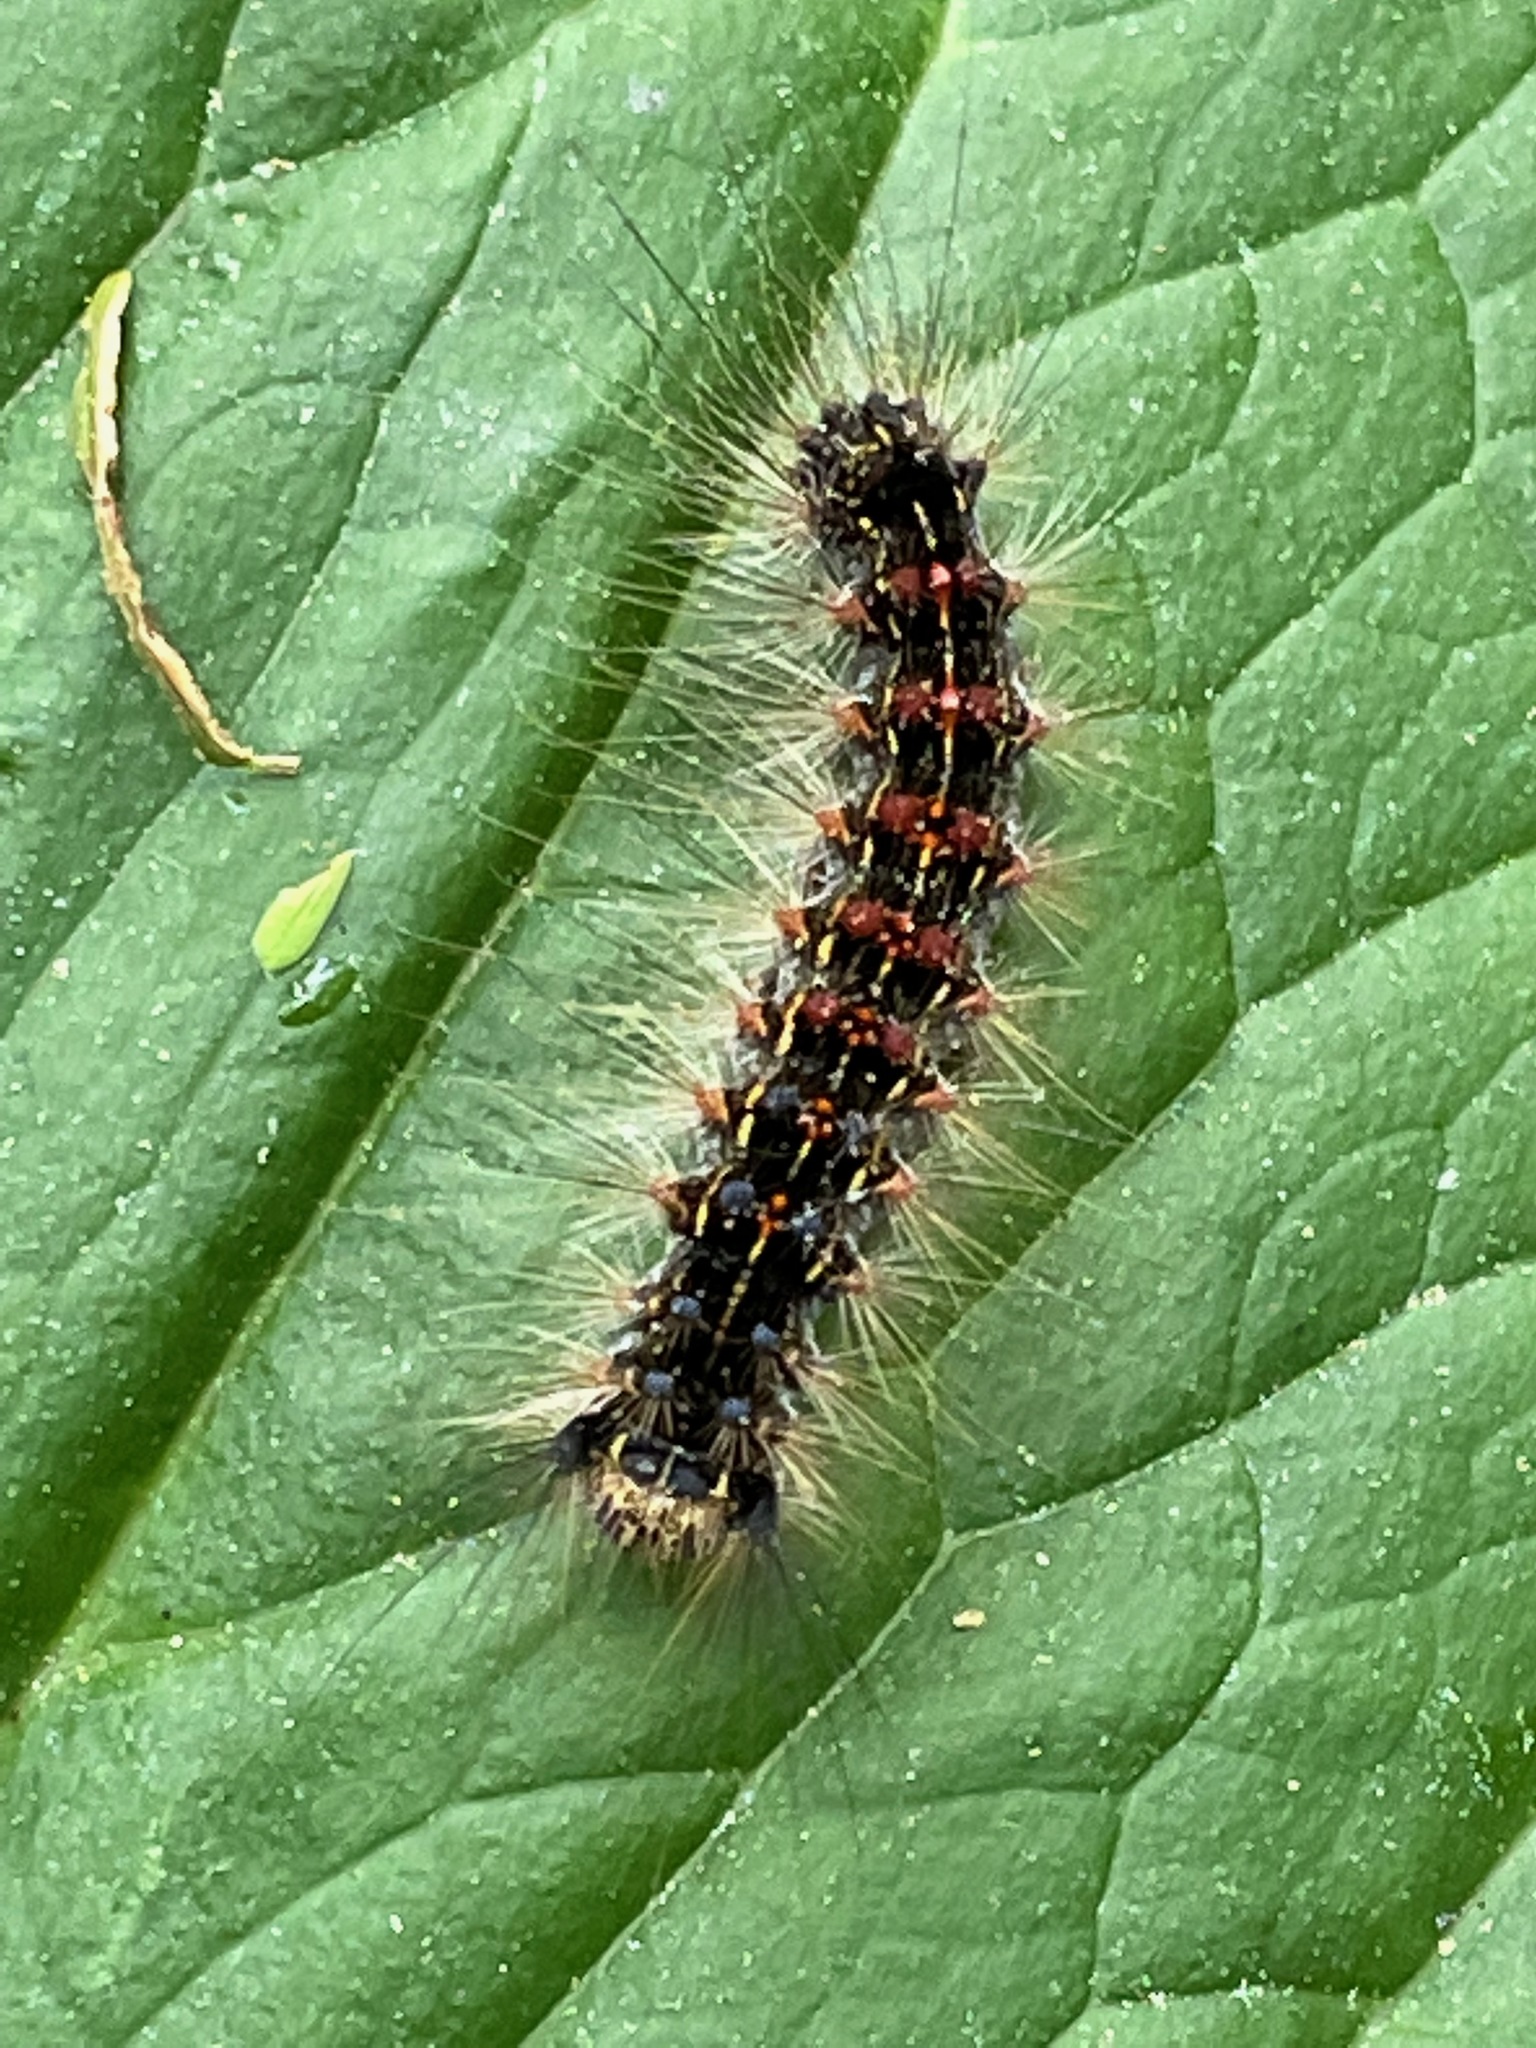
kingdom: Animalia
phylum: Arthropoda
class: Insecta
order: Lepidoptera
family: Erebidae
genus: Lymantria
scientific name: Lymantria dispar
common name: Gypsy moth
